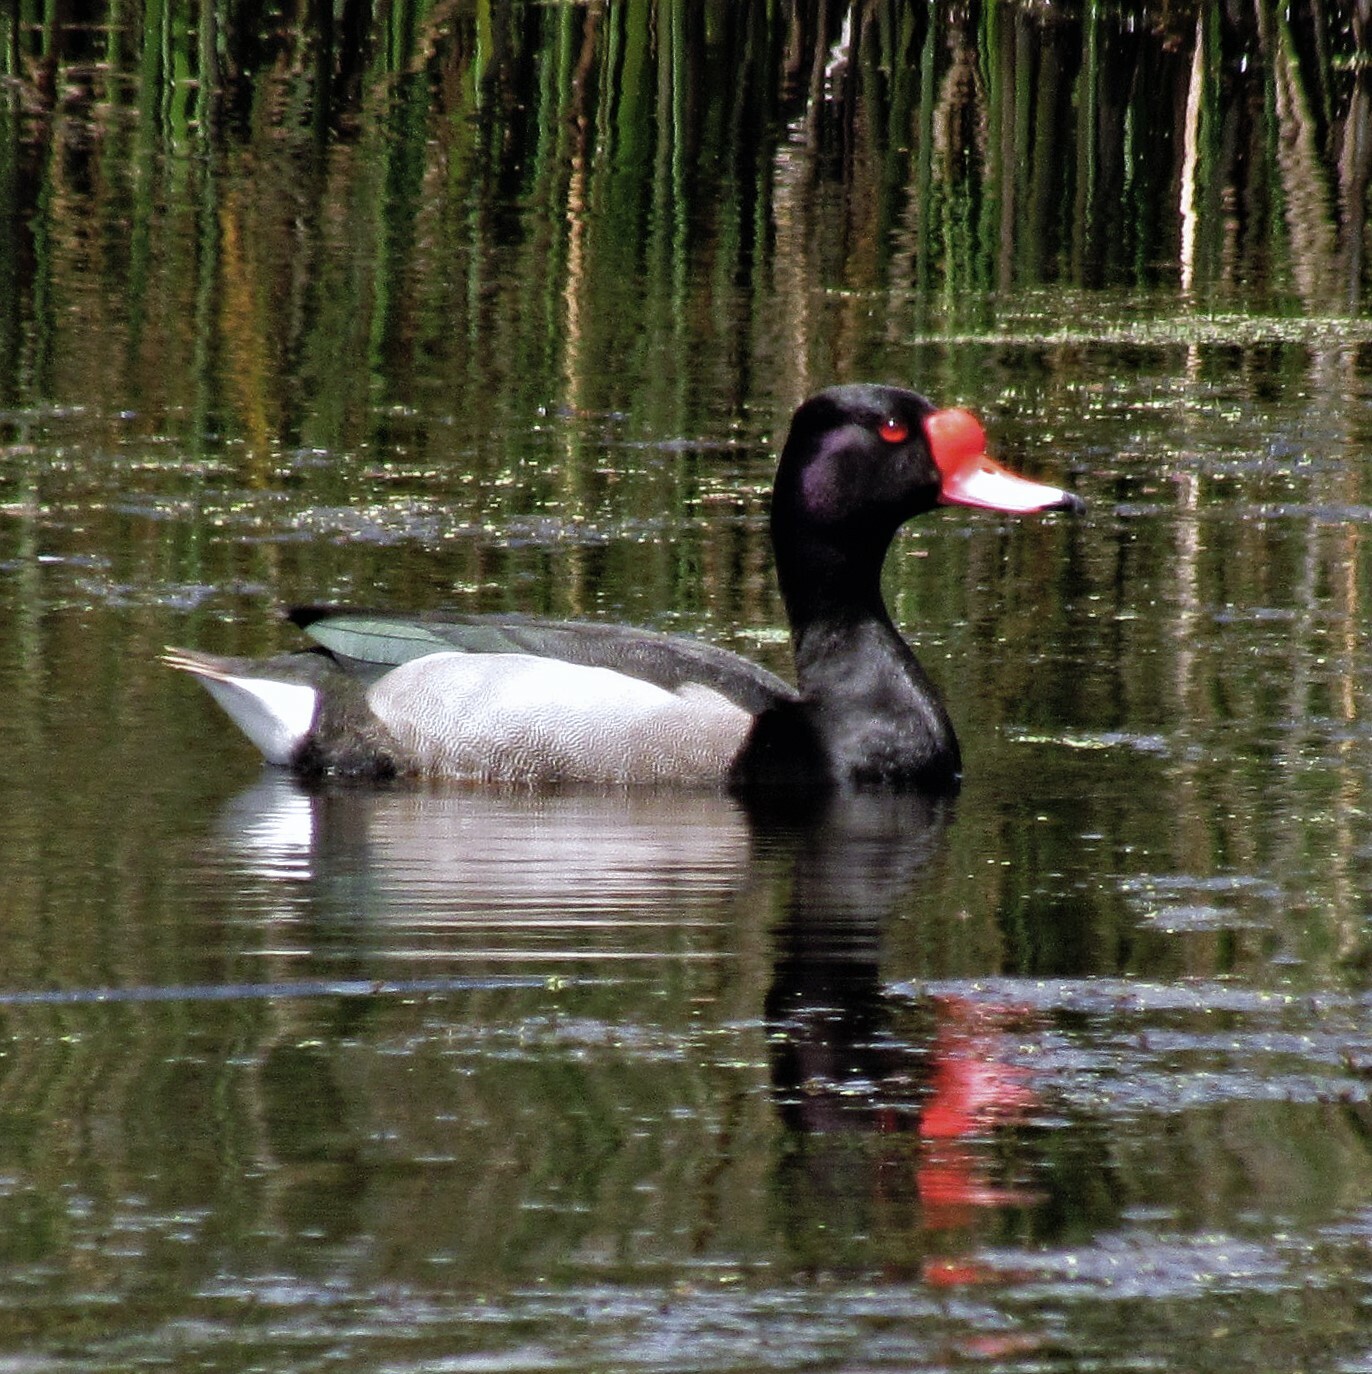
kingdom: Animalia
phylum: Chordata
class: Aves
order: Anseriformes
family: Anatidae
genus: Netta
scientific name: Netta peposaca
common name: Rosy-billed pochard
